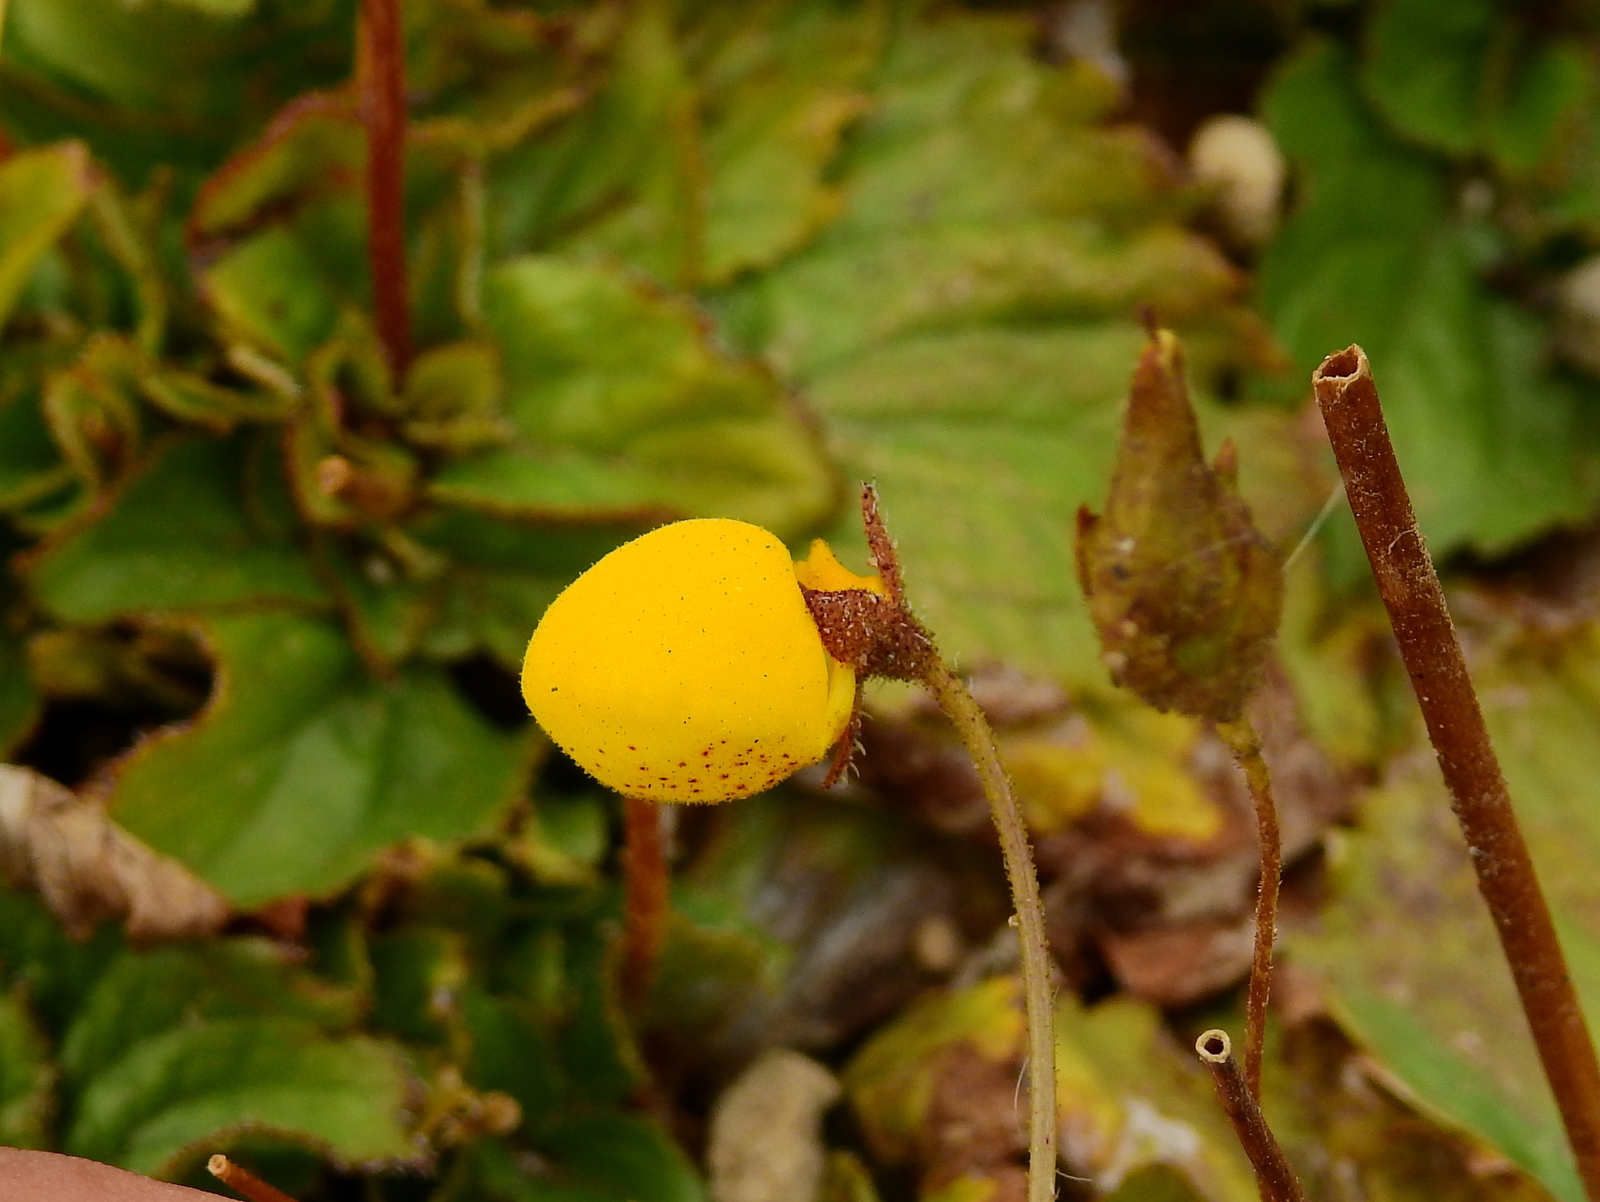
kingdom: Plantae
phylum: Tracheophyta
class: Magnoliopsida
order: Lamiales
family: Calceolariaceae
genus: Calceolaria
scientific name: Calceolaria filicaulis
